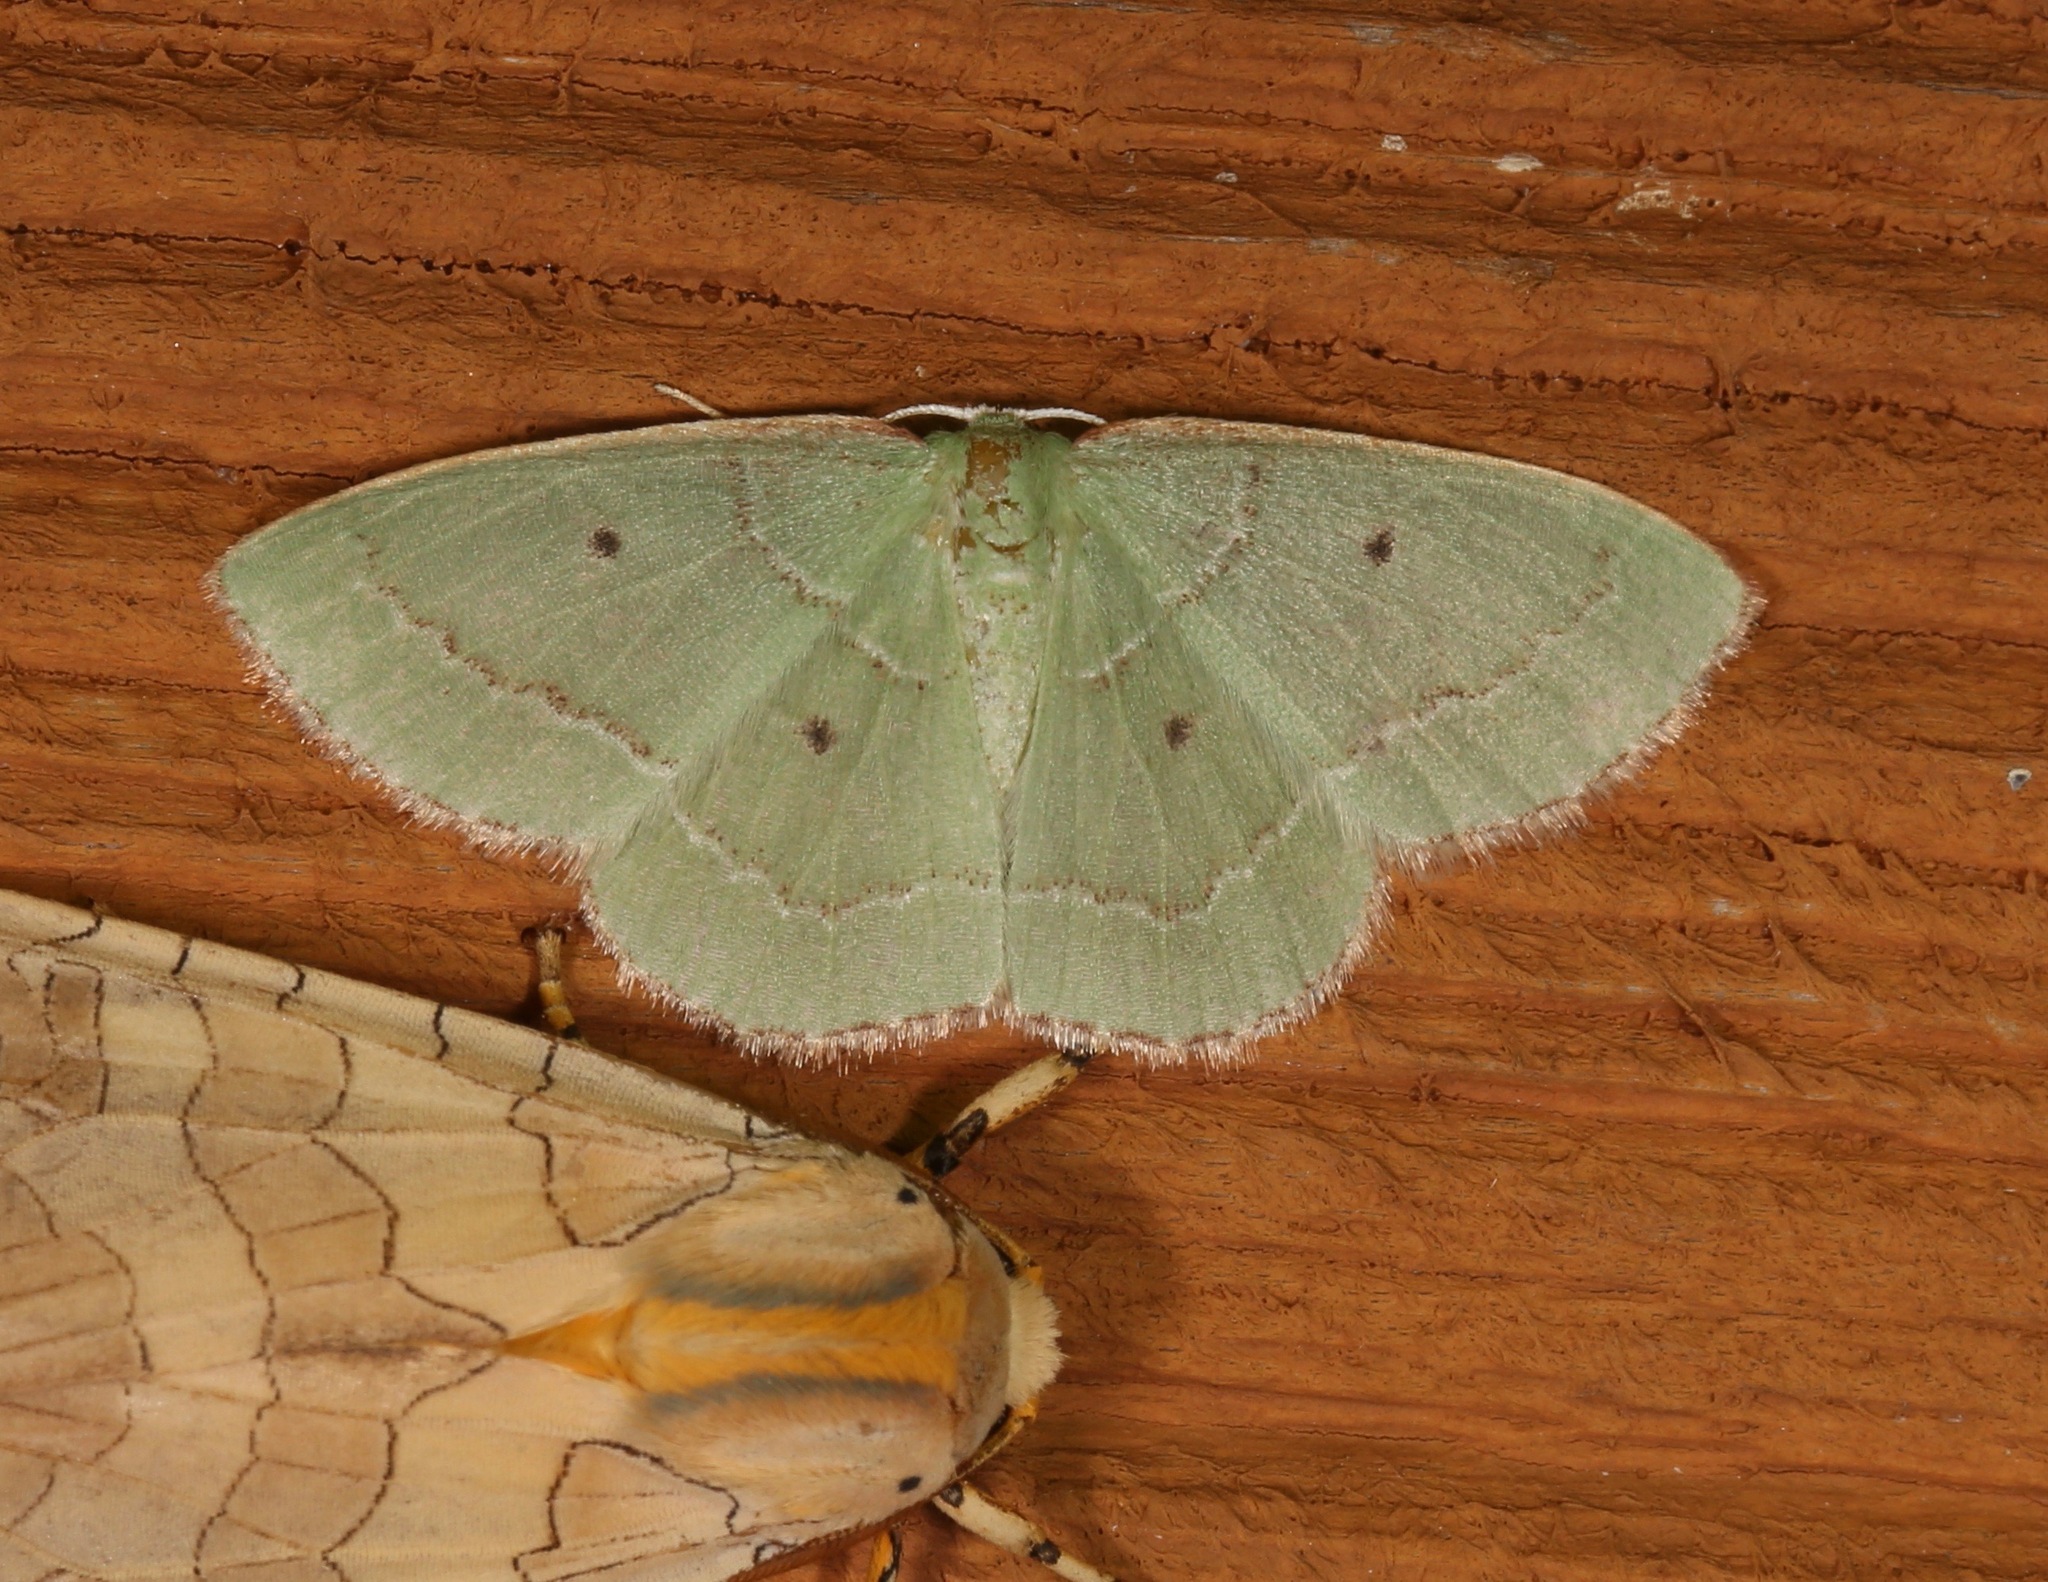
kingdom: Animalia
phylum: Arthropoda
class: Insecta
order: Lepidoptera
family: Geometridae
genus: Nemoria
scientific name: Nemoria elfa
